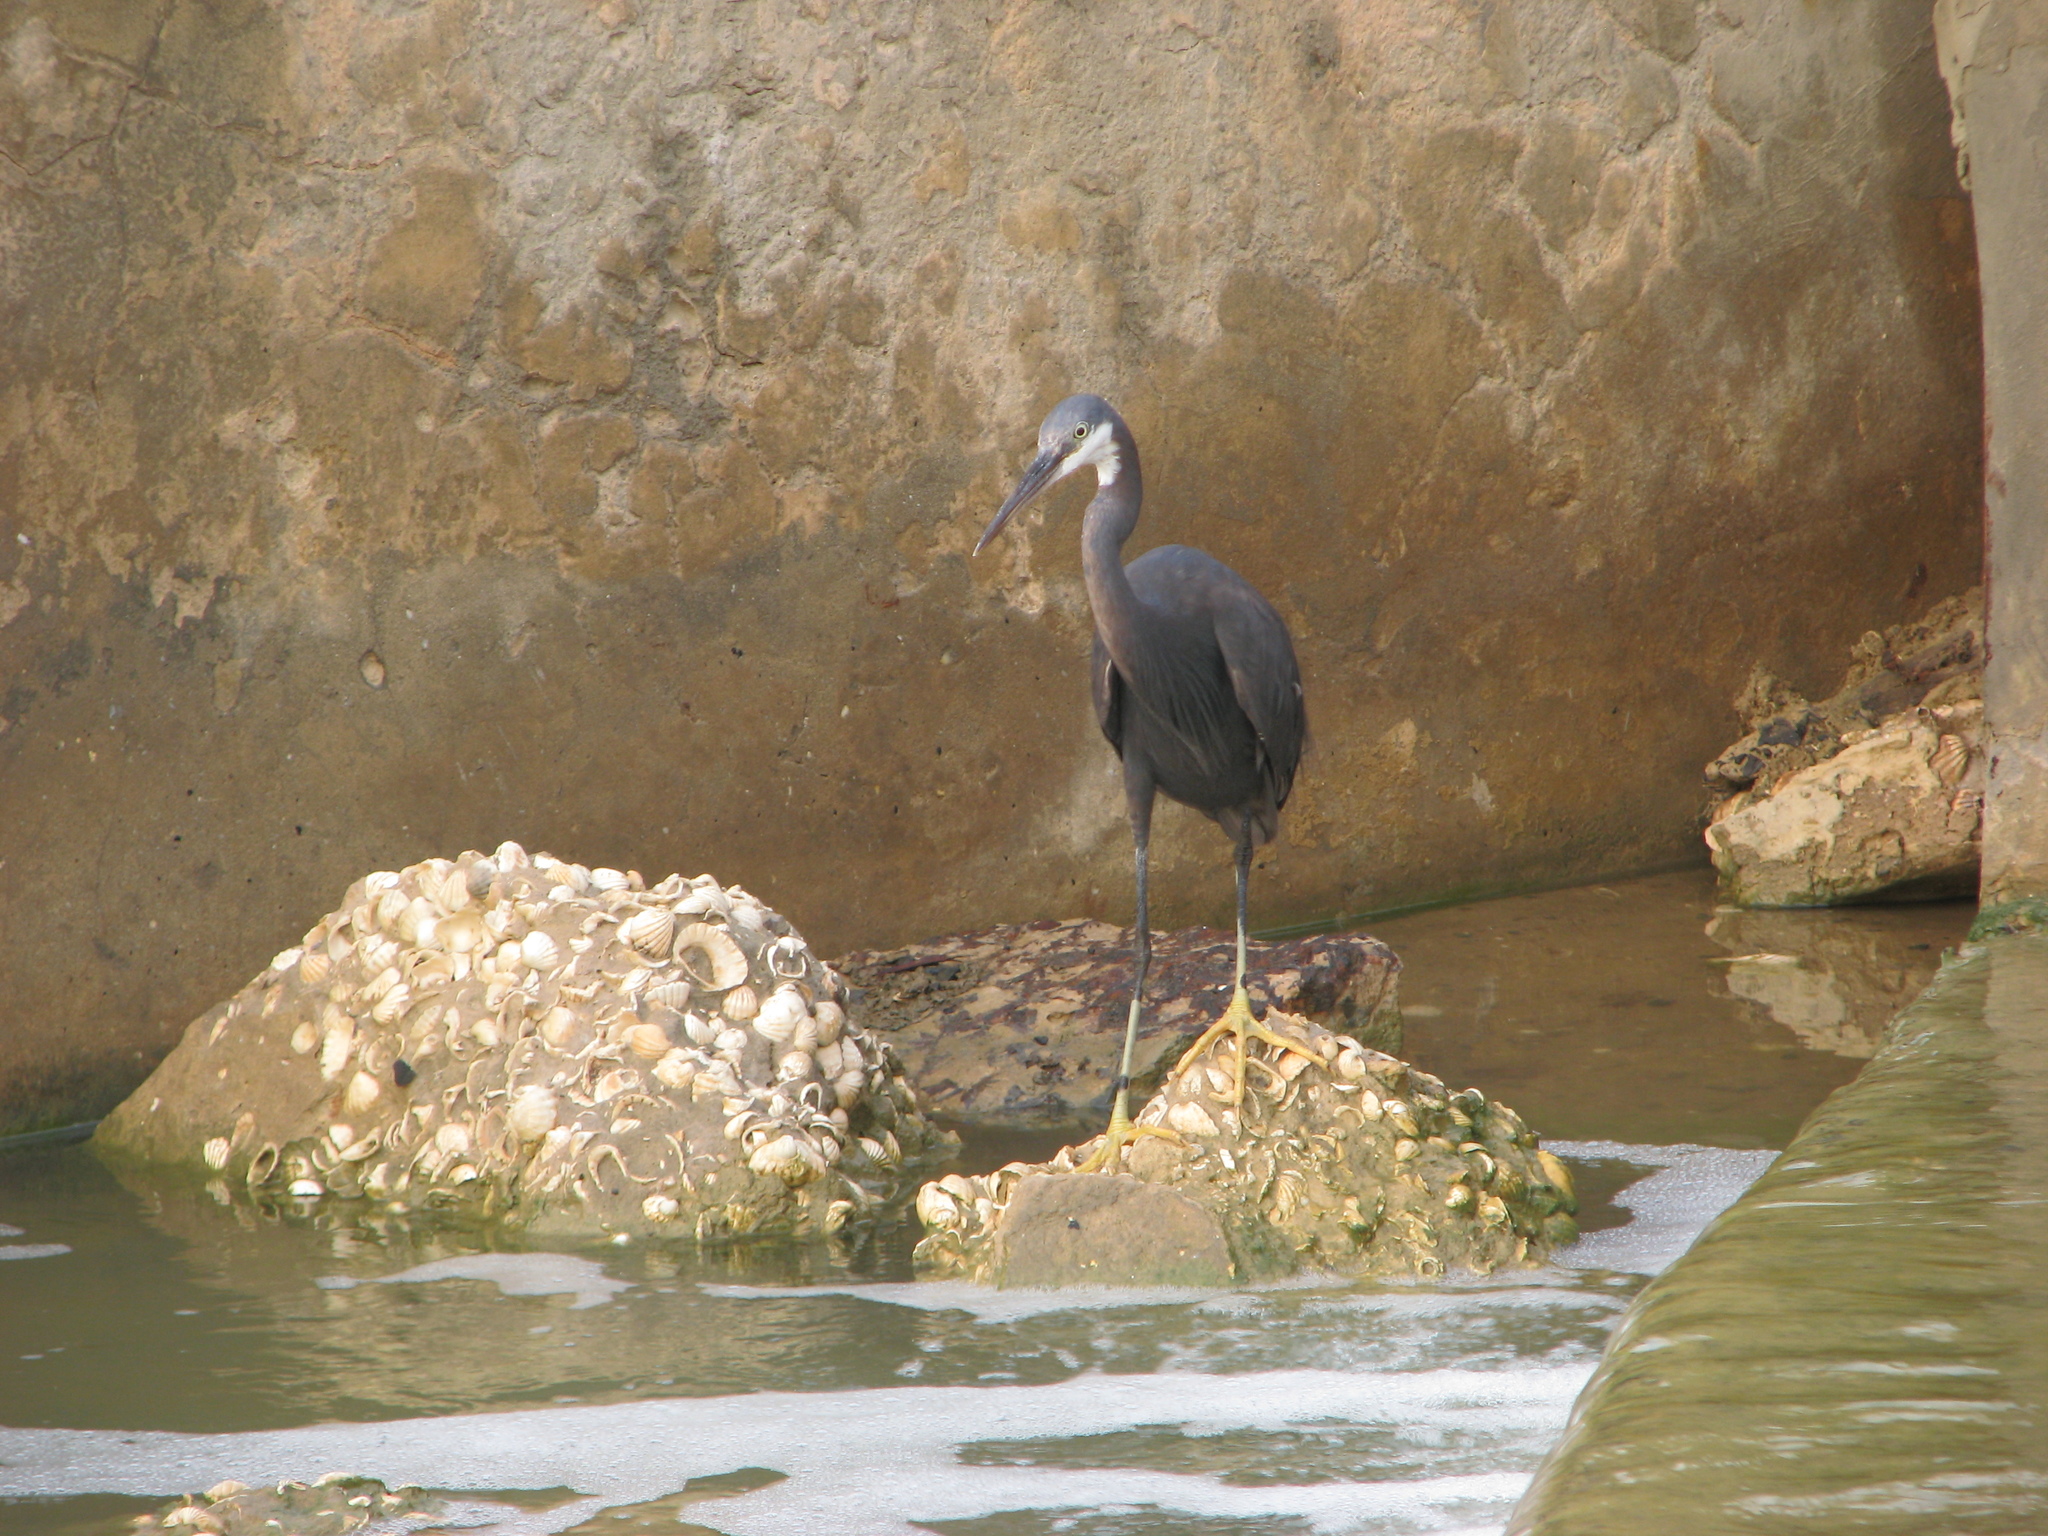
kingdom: Animalia
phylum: Chordata
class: Aves
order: Pelecaniformes
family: Ardeidae
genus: Egretta
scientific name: Egretta gularis
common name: Western reef-heron
